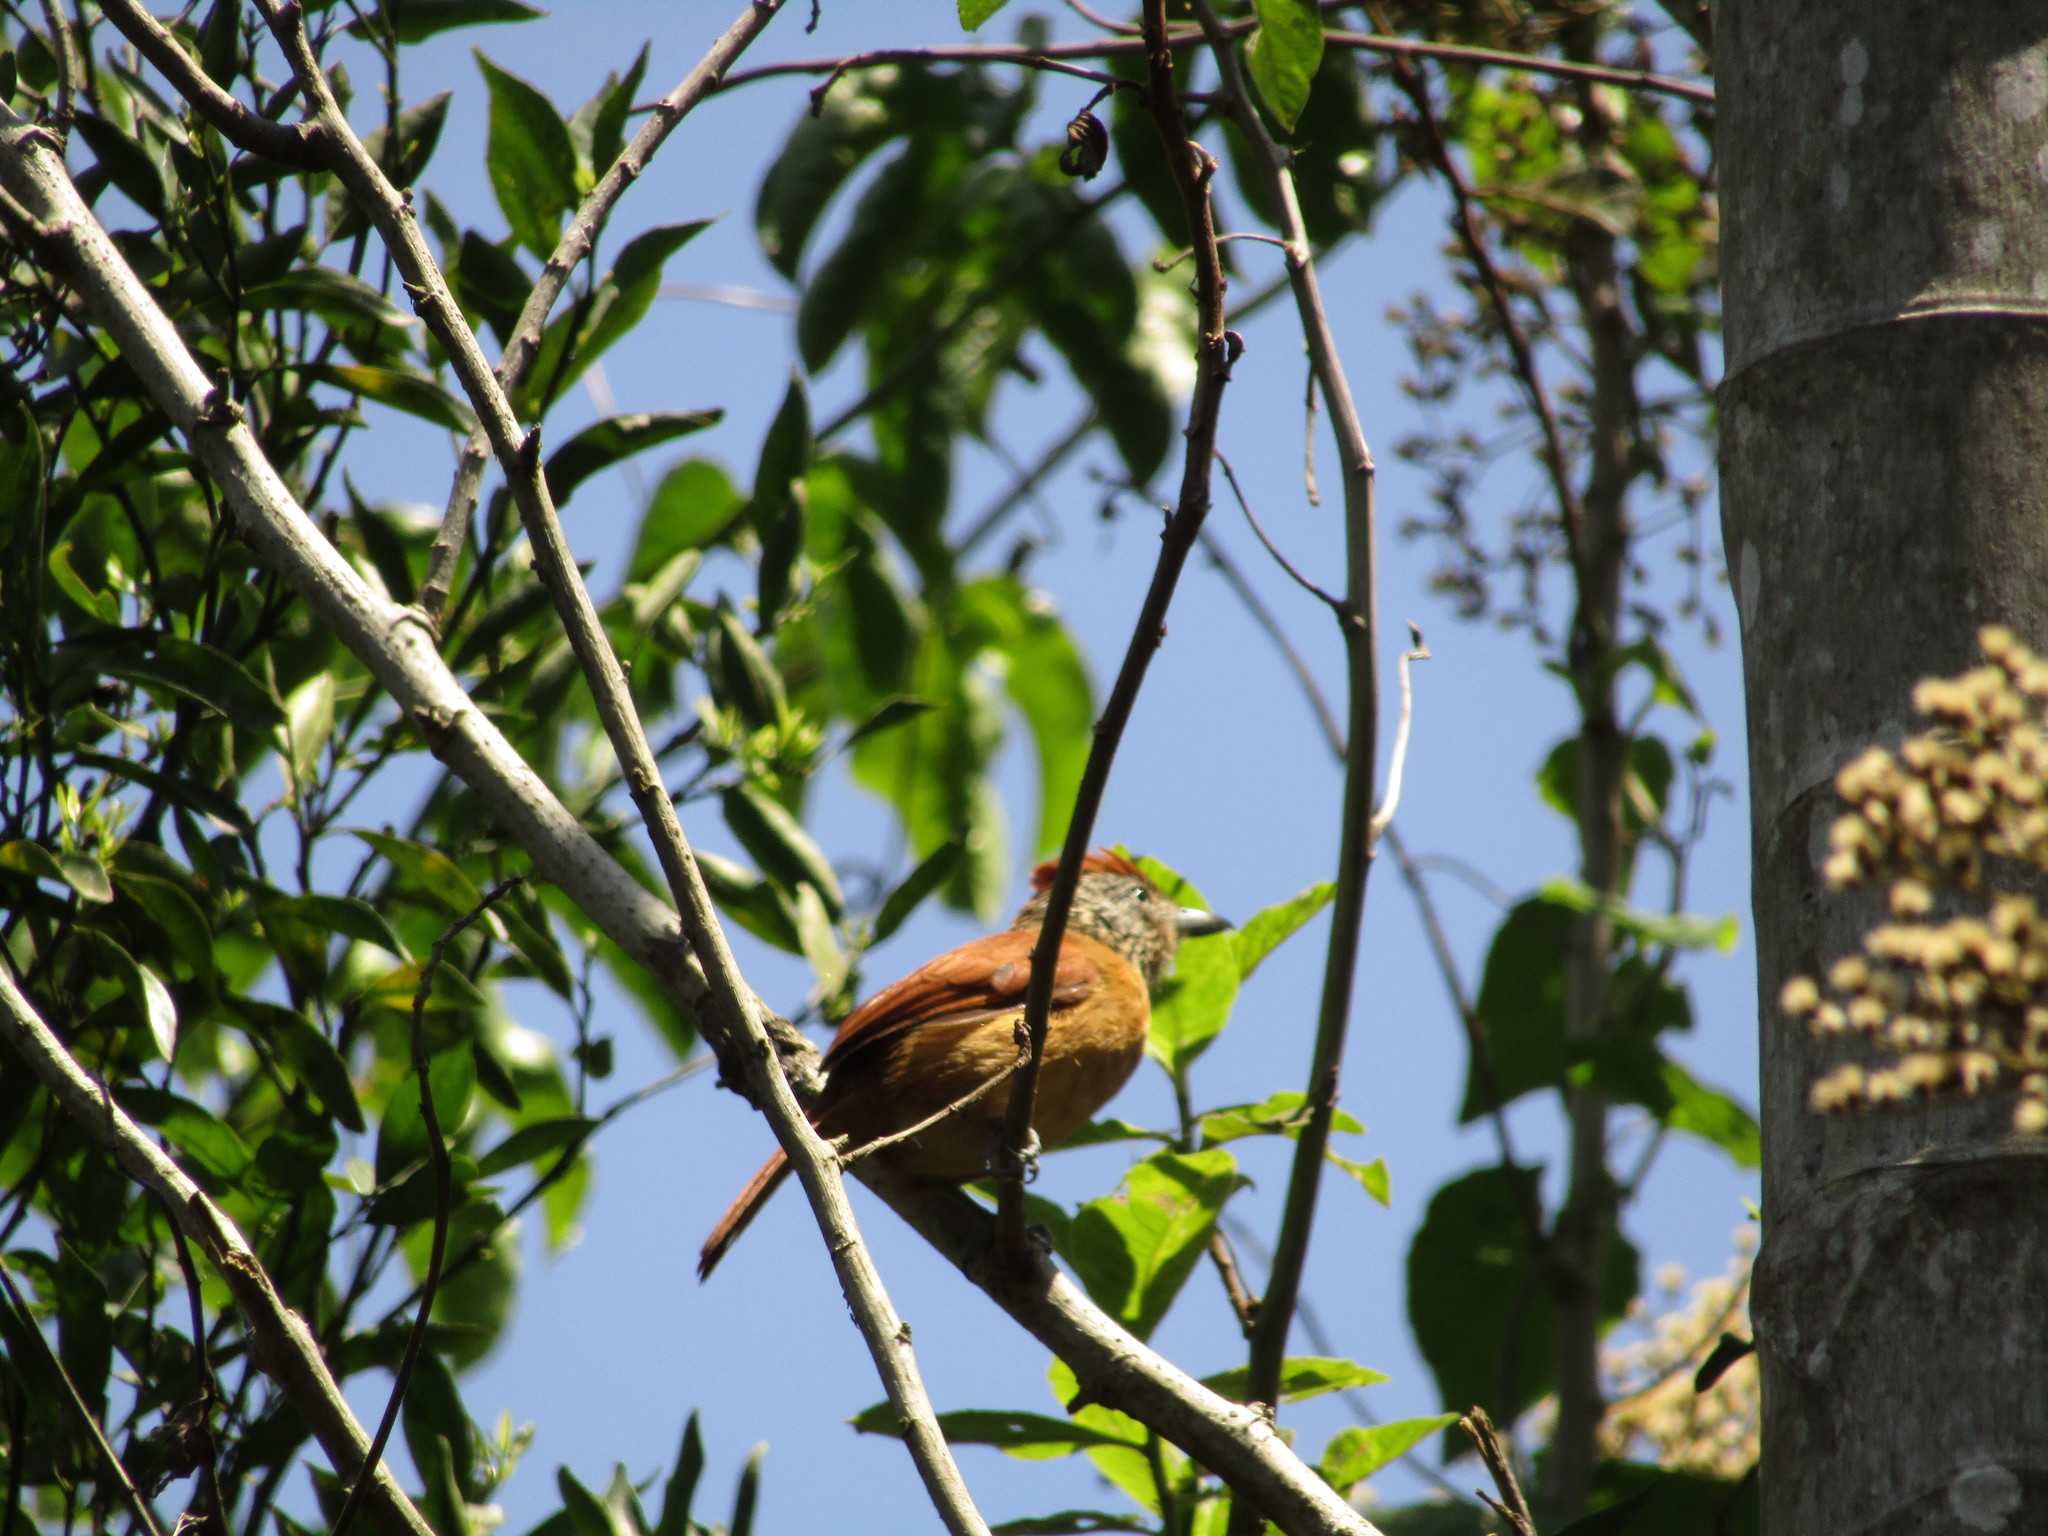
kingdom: Animalia
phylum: Chordata
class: Aves
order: Passeriformes
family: Thamnophilidae
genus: Thamnophilus
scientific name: Thamnophilus doliatus
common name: Barred antshrike
